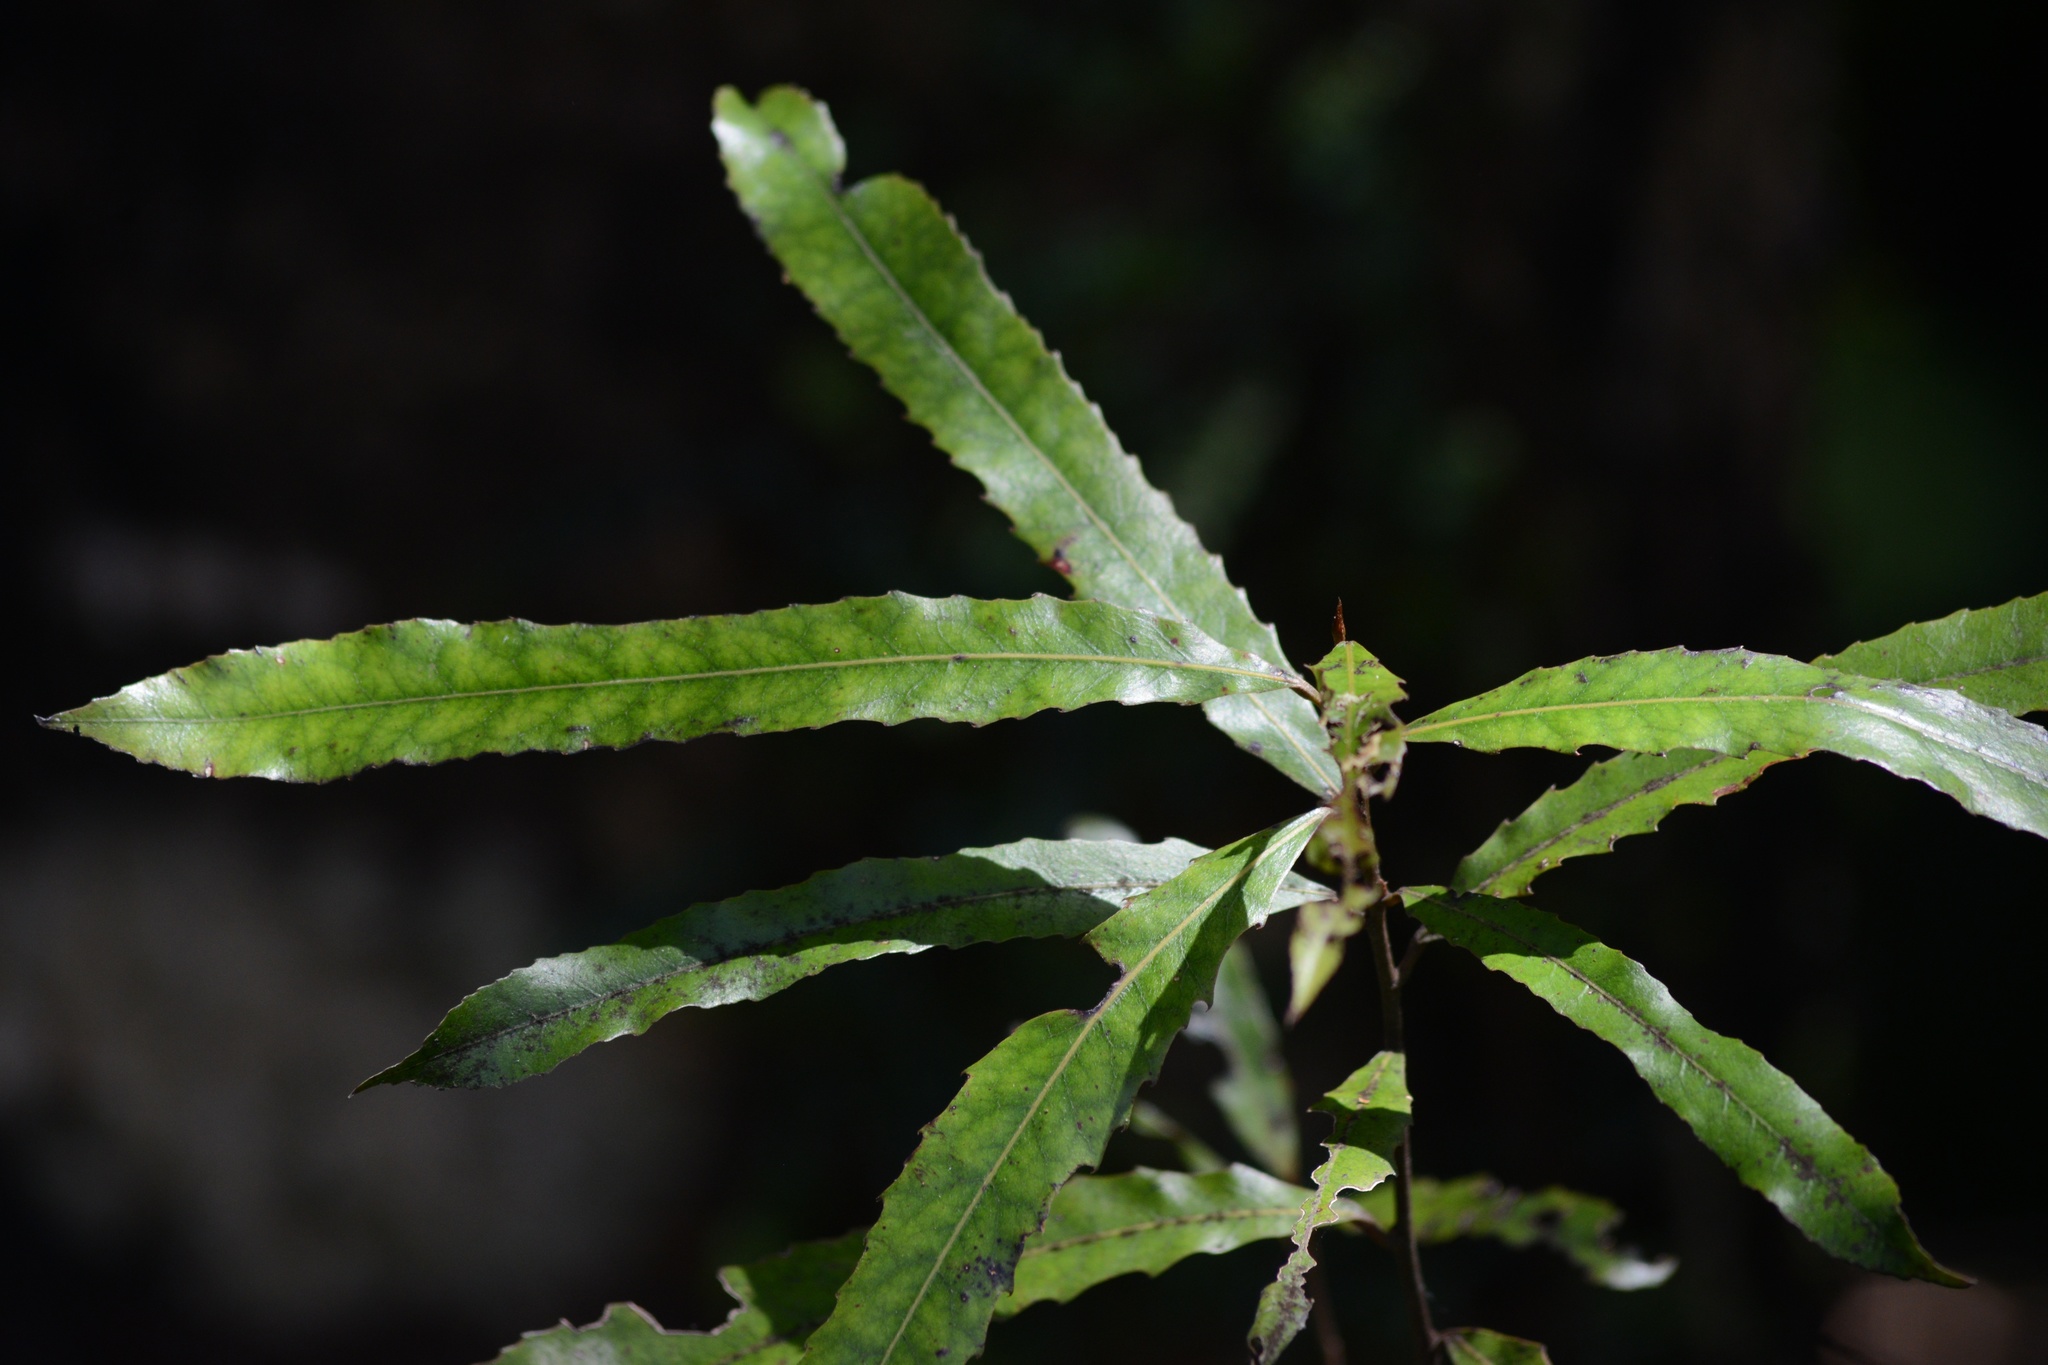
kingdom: Plantae
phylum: Tracheophyta
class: Magnoliopsida
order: Oxalidales
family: Elaeocarpaceae
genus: Elaeocarpus
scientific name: Elaeocarpus dentatus
